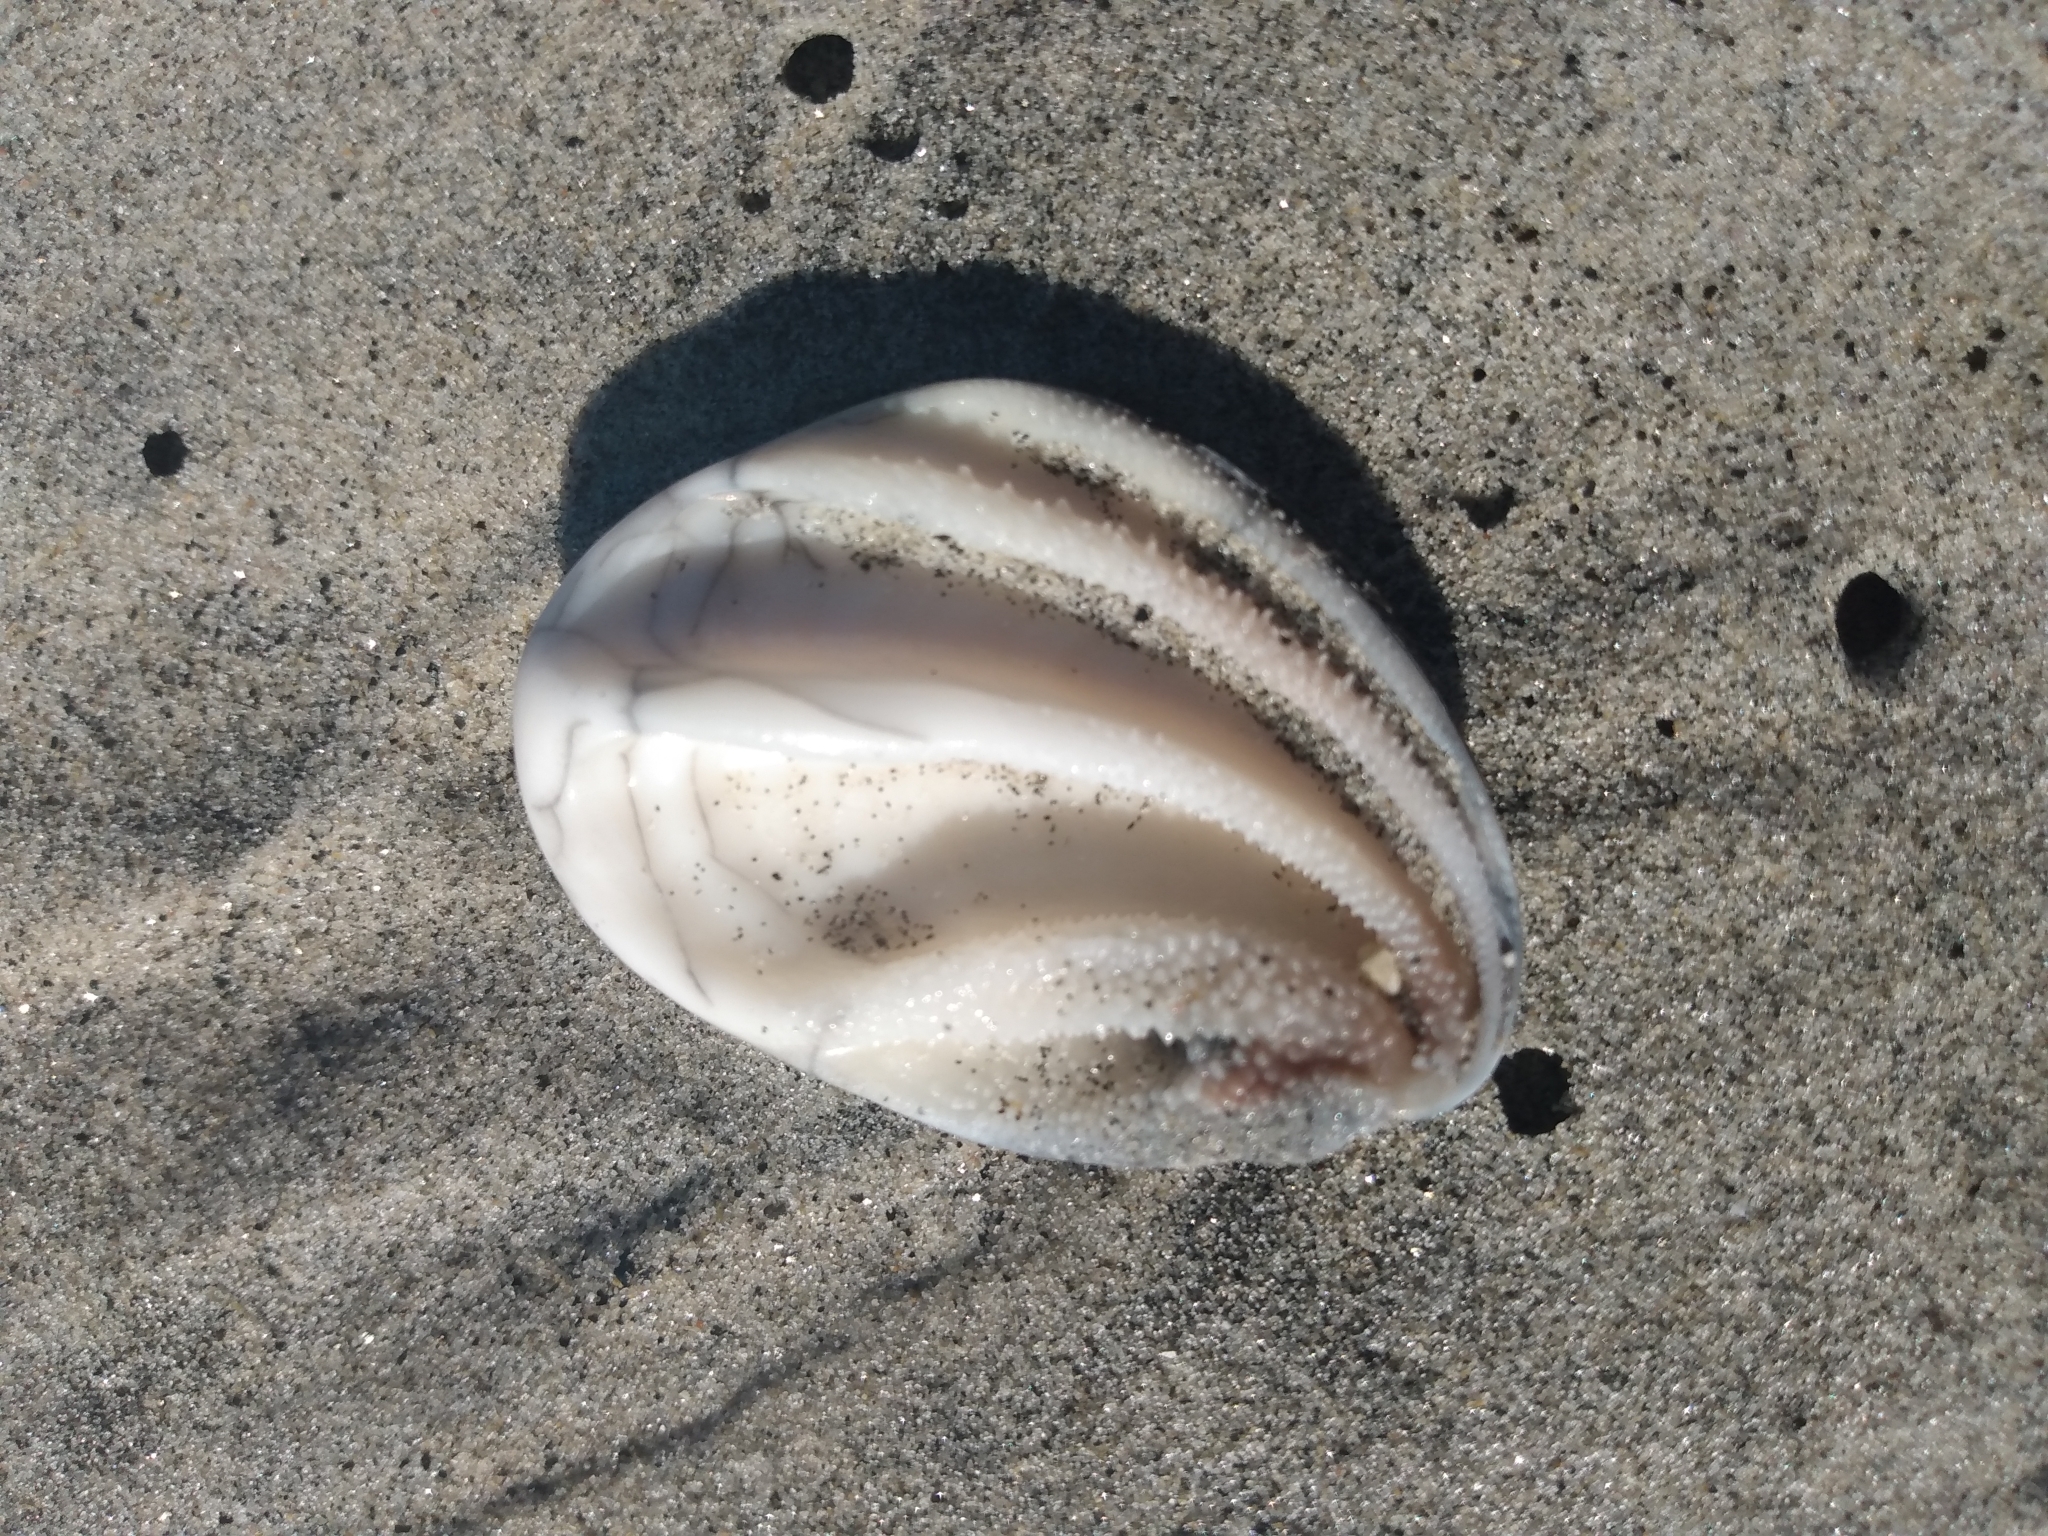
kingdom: Animalia
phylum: Mollusca
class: Gastropoda
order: Trochida
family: Turbinidae
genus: Megastraea
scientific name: Megastraea undosa
